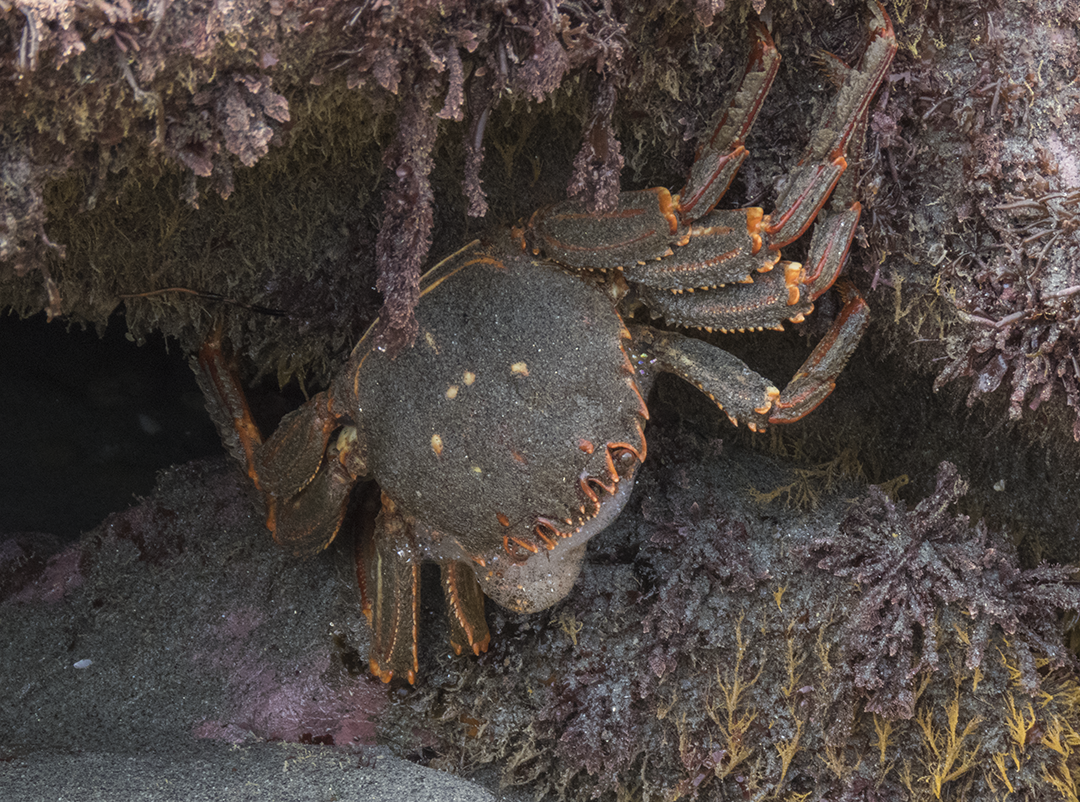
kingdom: Animalia
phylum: Arthropoda
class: Malacostraca
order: Decapoda
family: Plagusiidae
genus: Guinusia
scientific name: Guinusia chabrus
